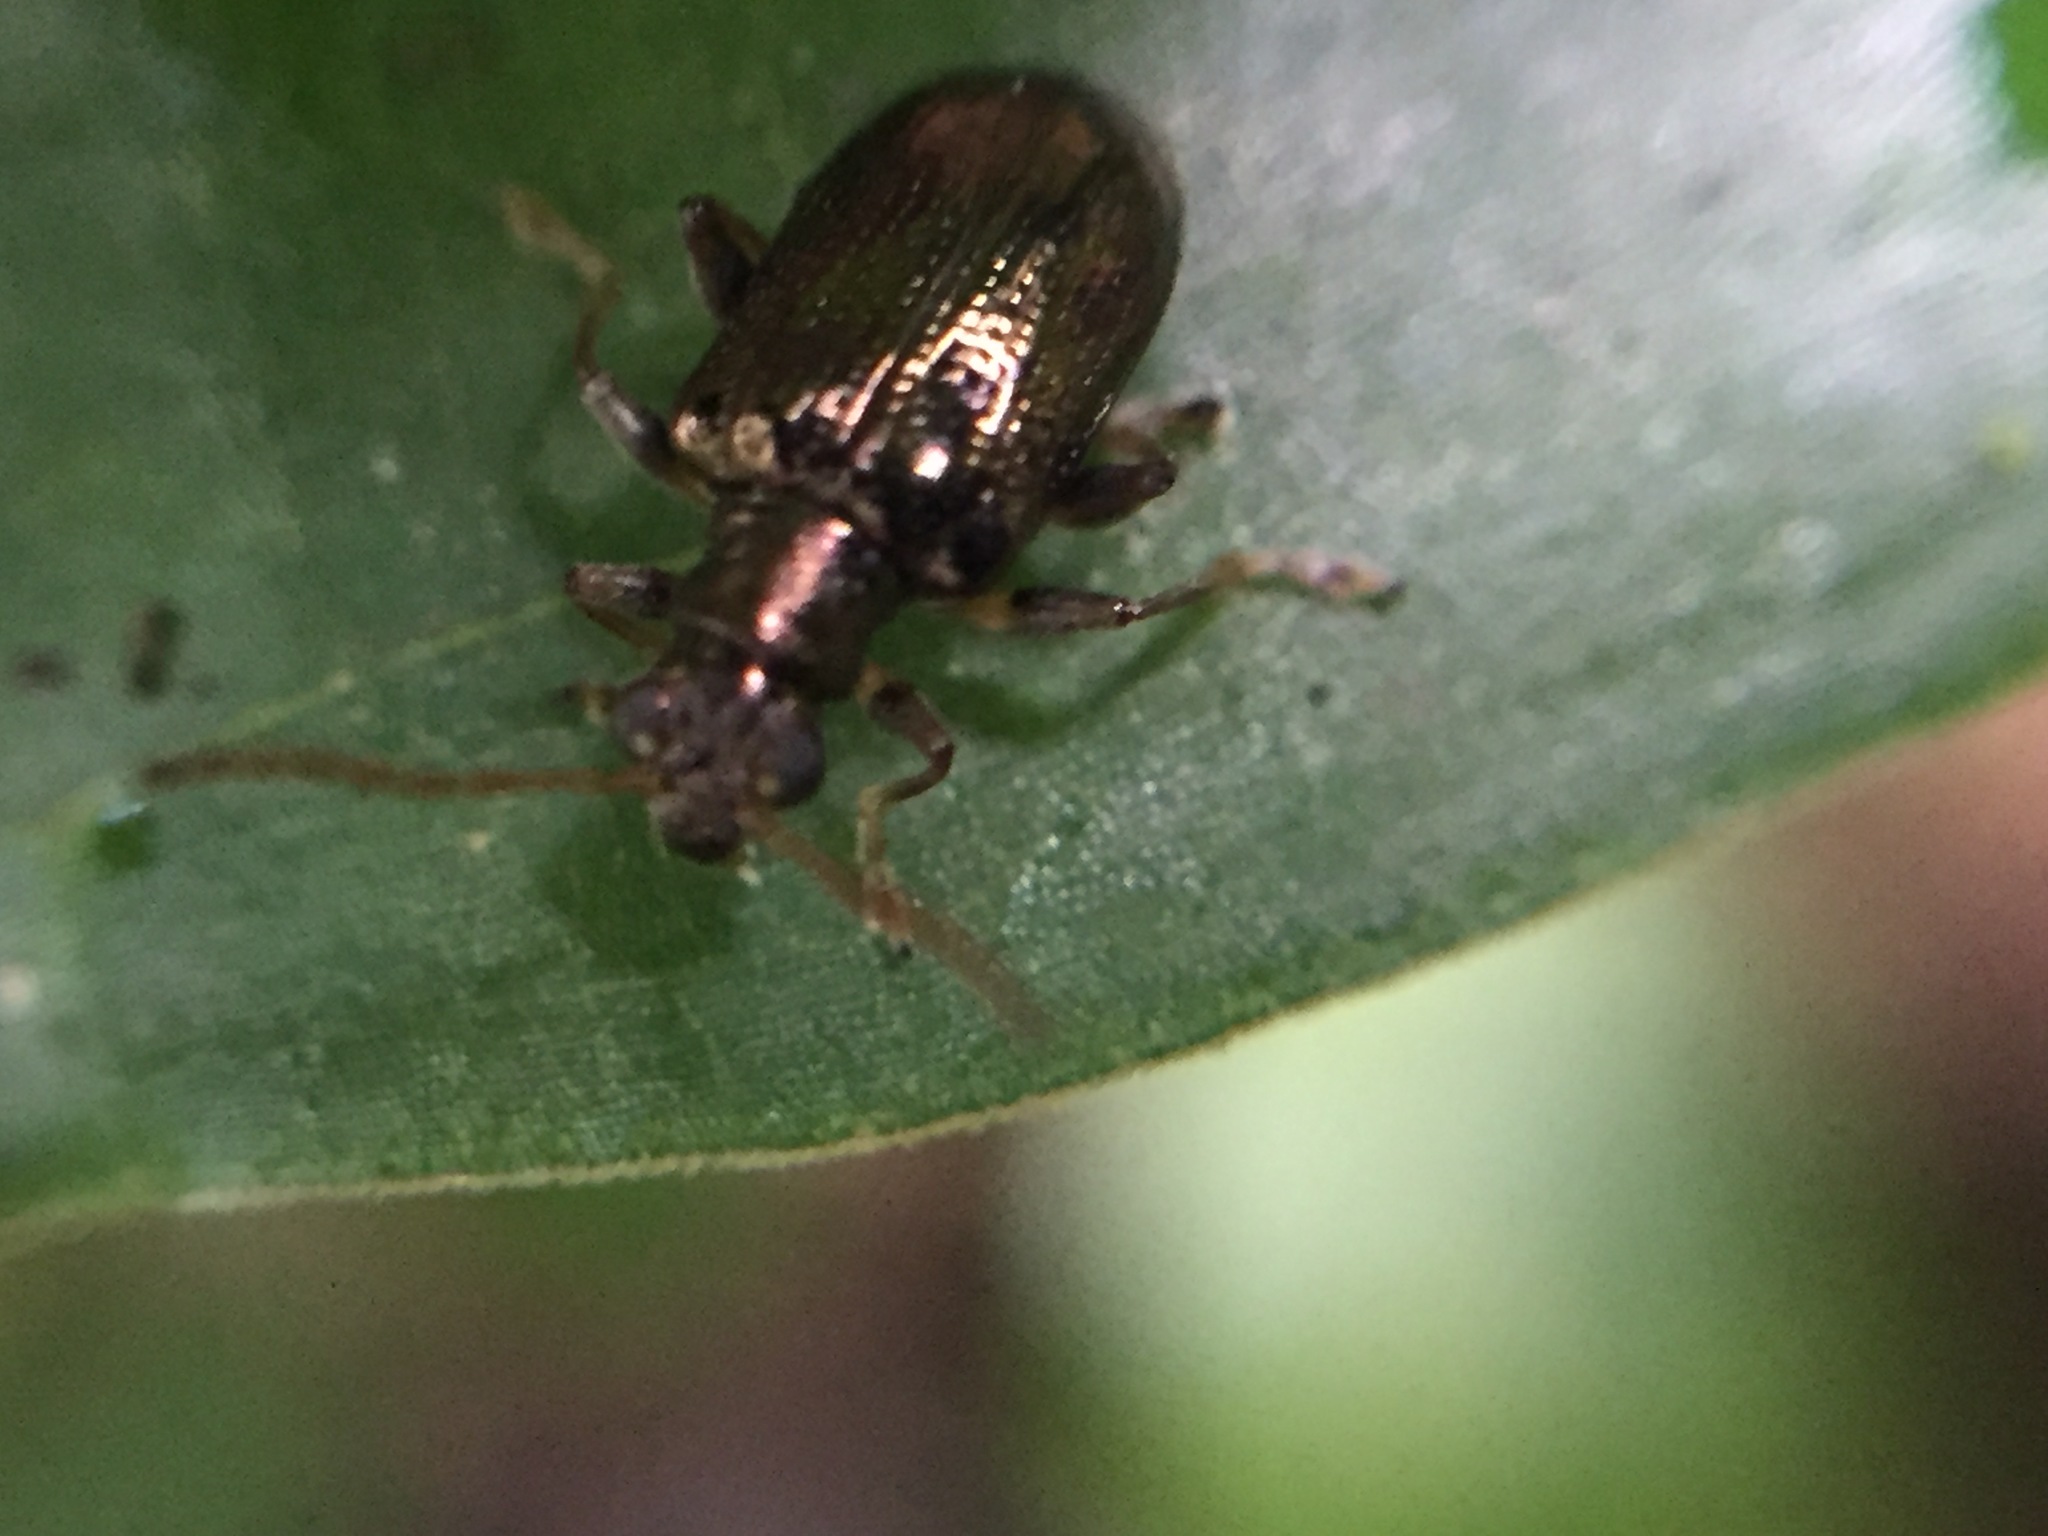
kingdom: Animalia
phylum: Arthropoda
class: Insecta
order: Coleoptera
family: Chrysomelidae
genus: Neolema
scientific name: Neolema ogloblini
